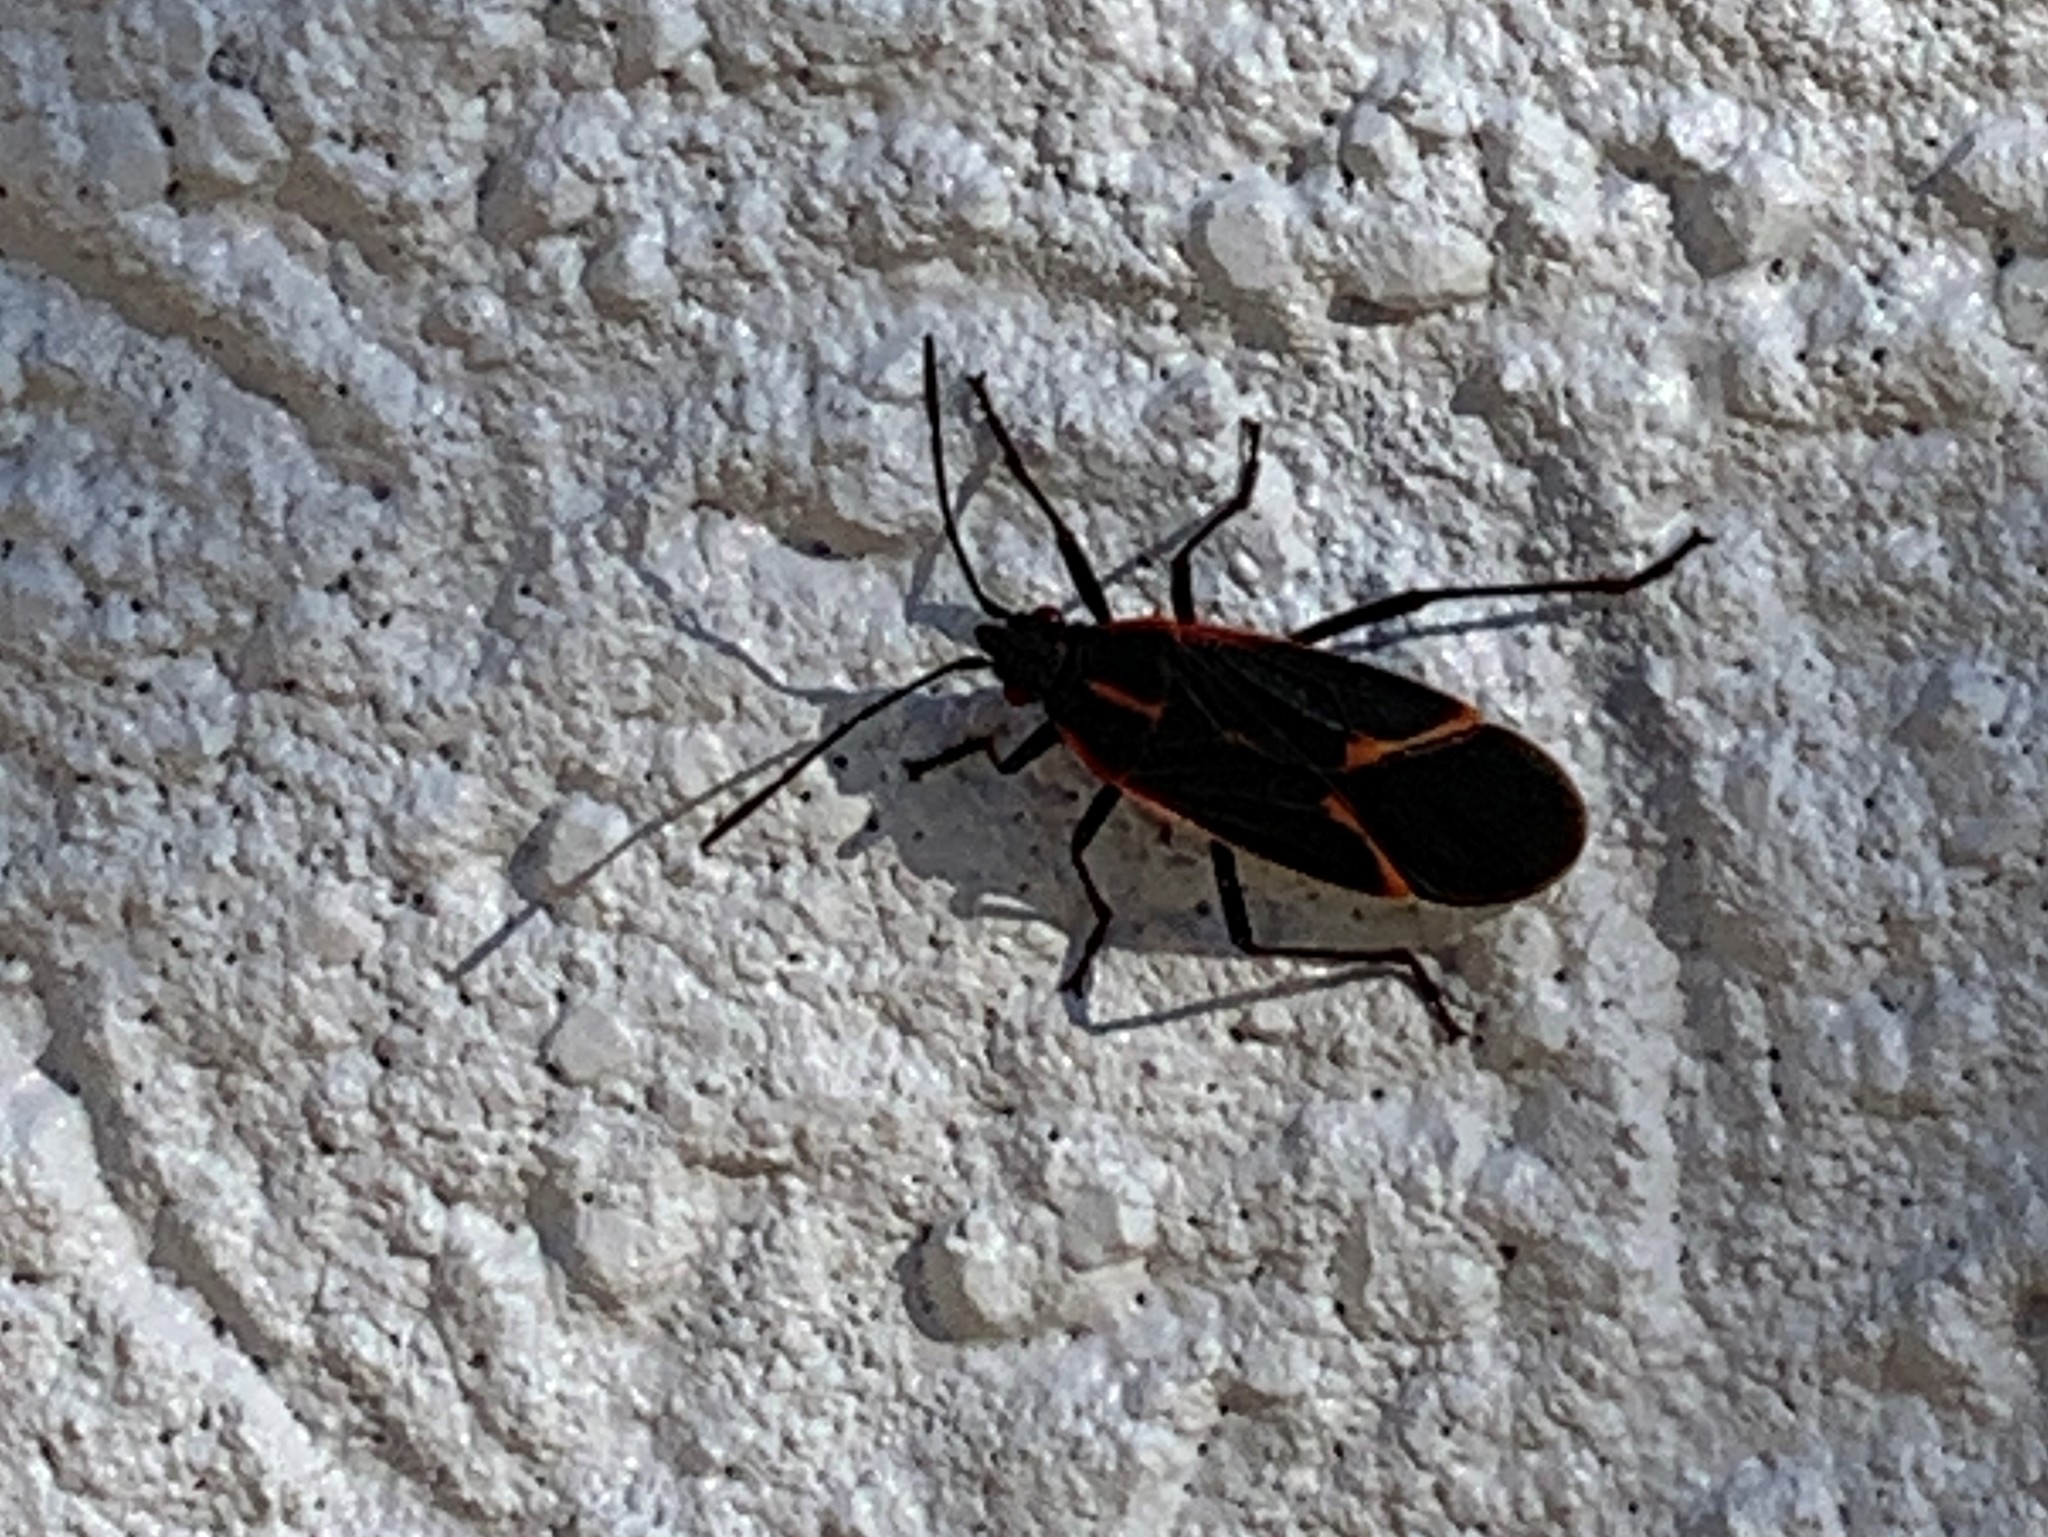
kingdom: Animalia
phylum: Arthropoda
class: Insecta
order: Hemiptera
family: Rhopalidae
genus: Boisea
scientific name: Boisea trivittata
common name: Boxelder bug
